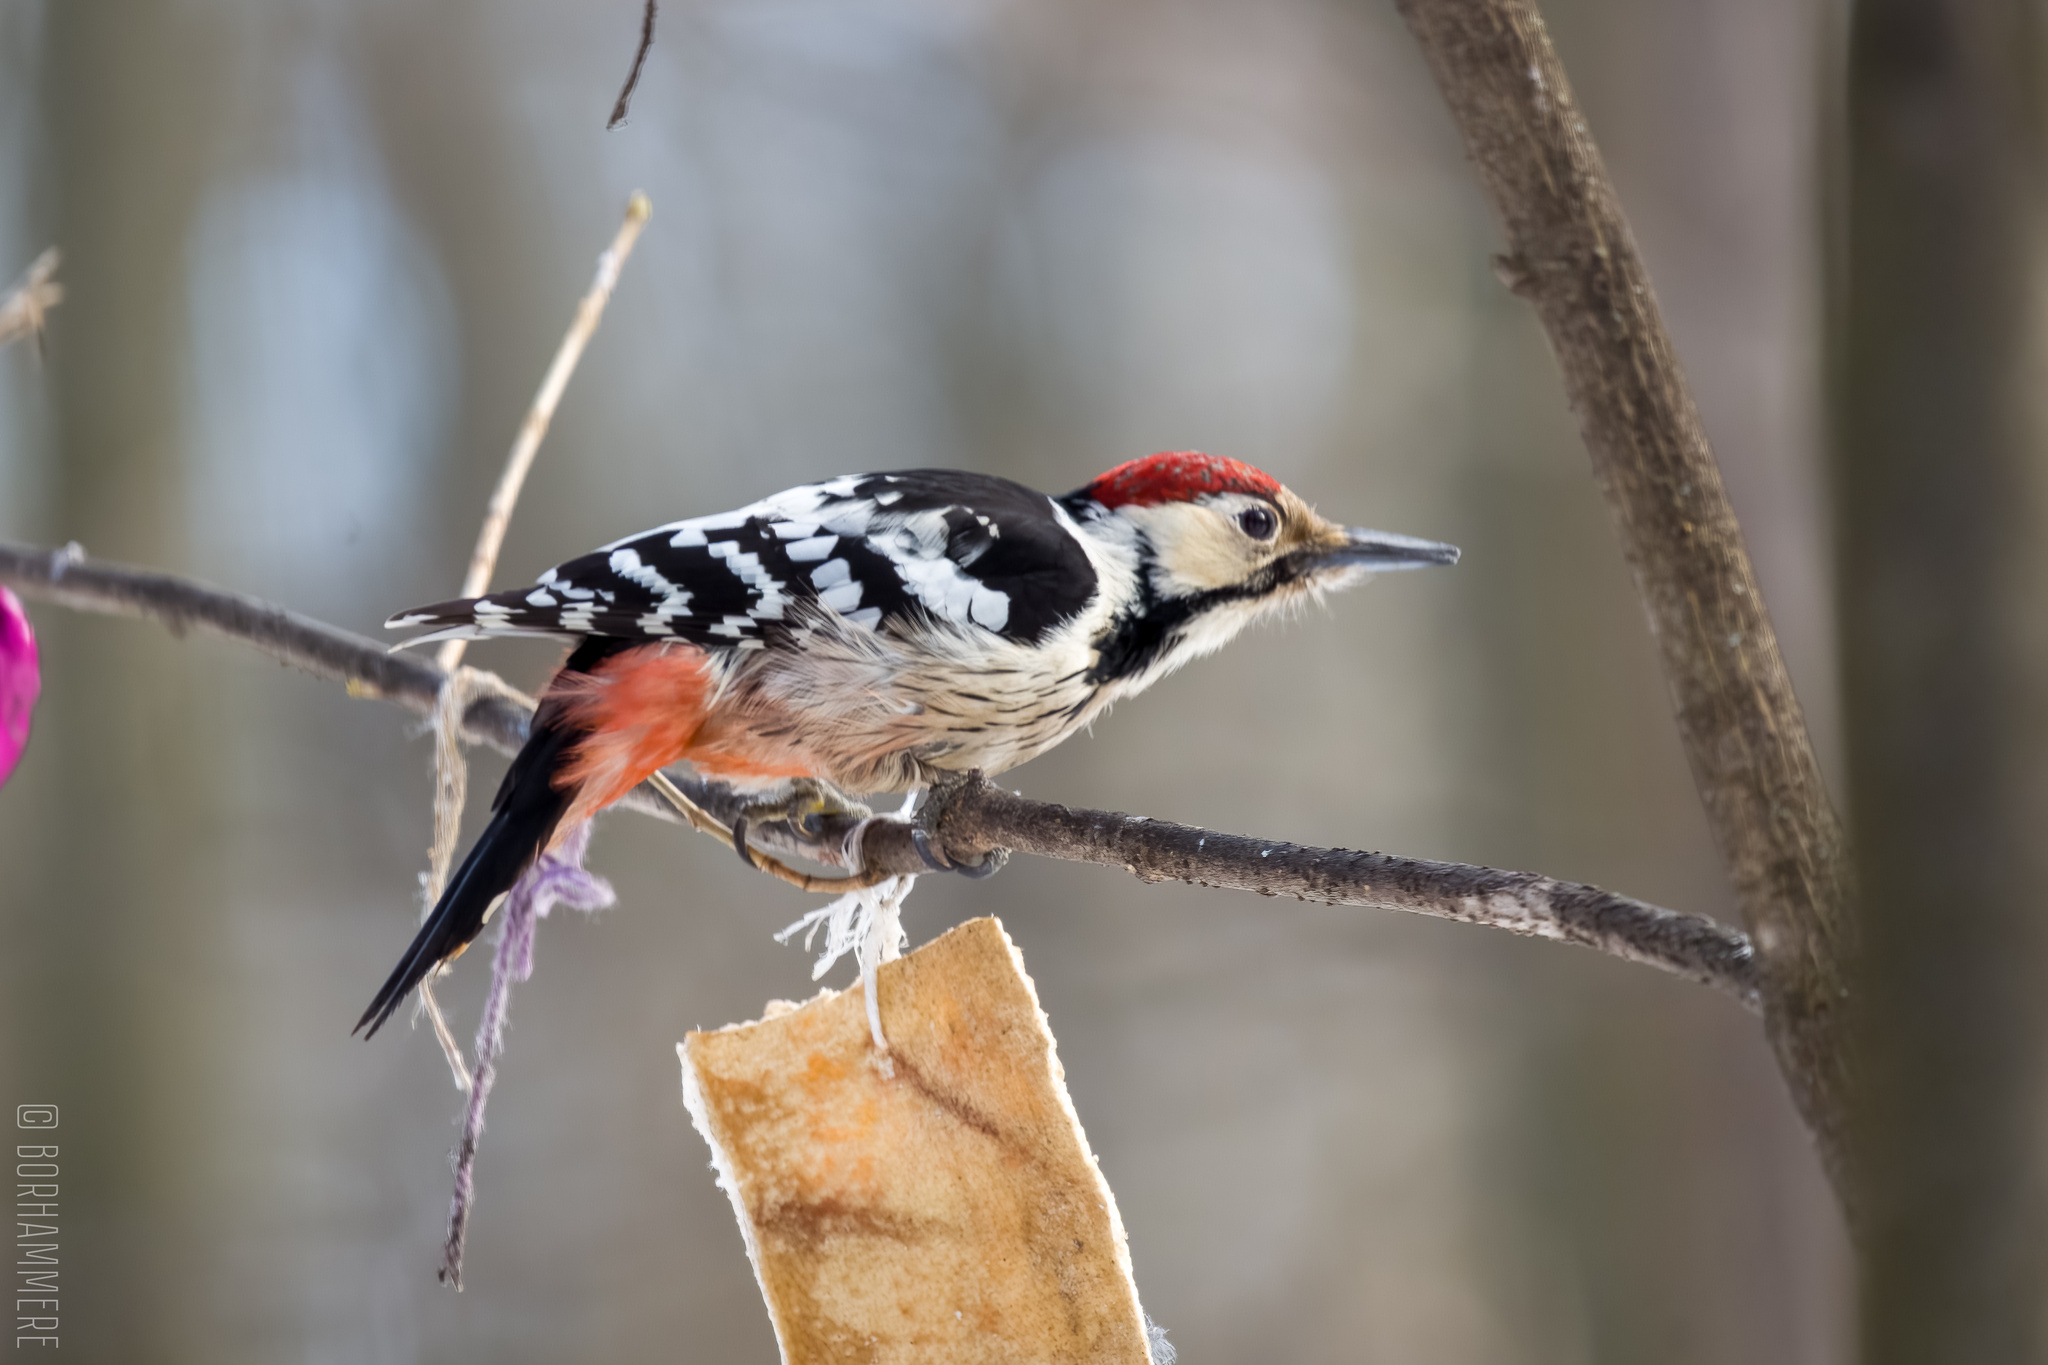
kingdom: Animalia
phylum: Chordata
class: Aves
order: Piciformes
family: Picidae
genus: Dendrocopos
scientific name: Dendrocopos leucotos
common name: White-backed woodpecker
